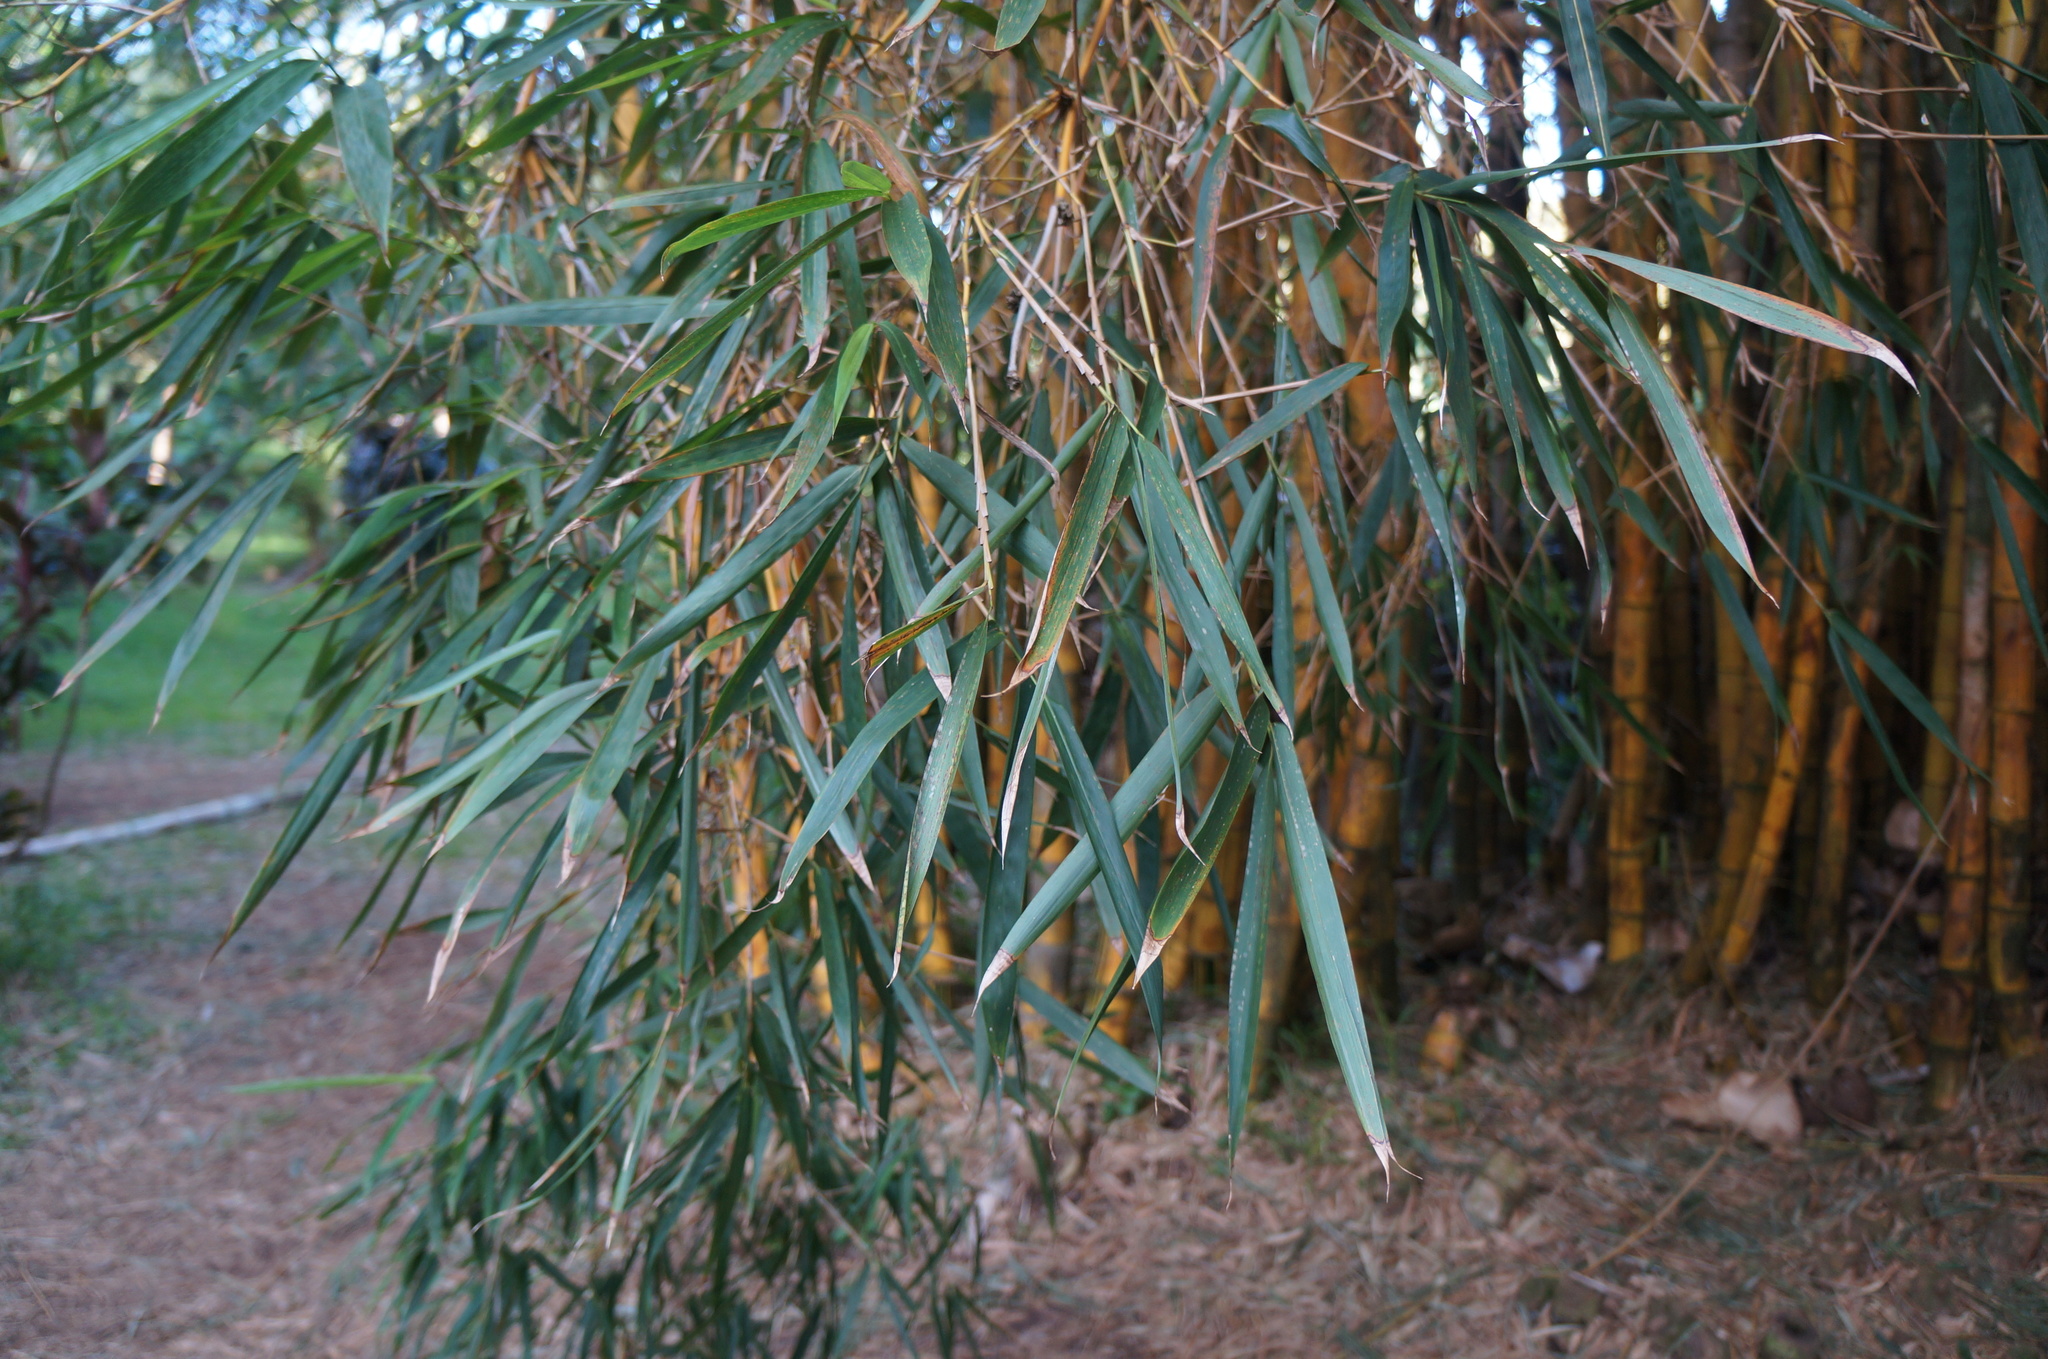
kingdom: Plantae
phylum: Tracheophyta
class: Liliopsida
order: Poales
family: Poaceae
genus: Bambusa
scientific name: Bambusa vulgaris
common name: Common bamboo
